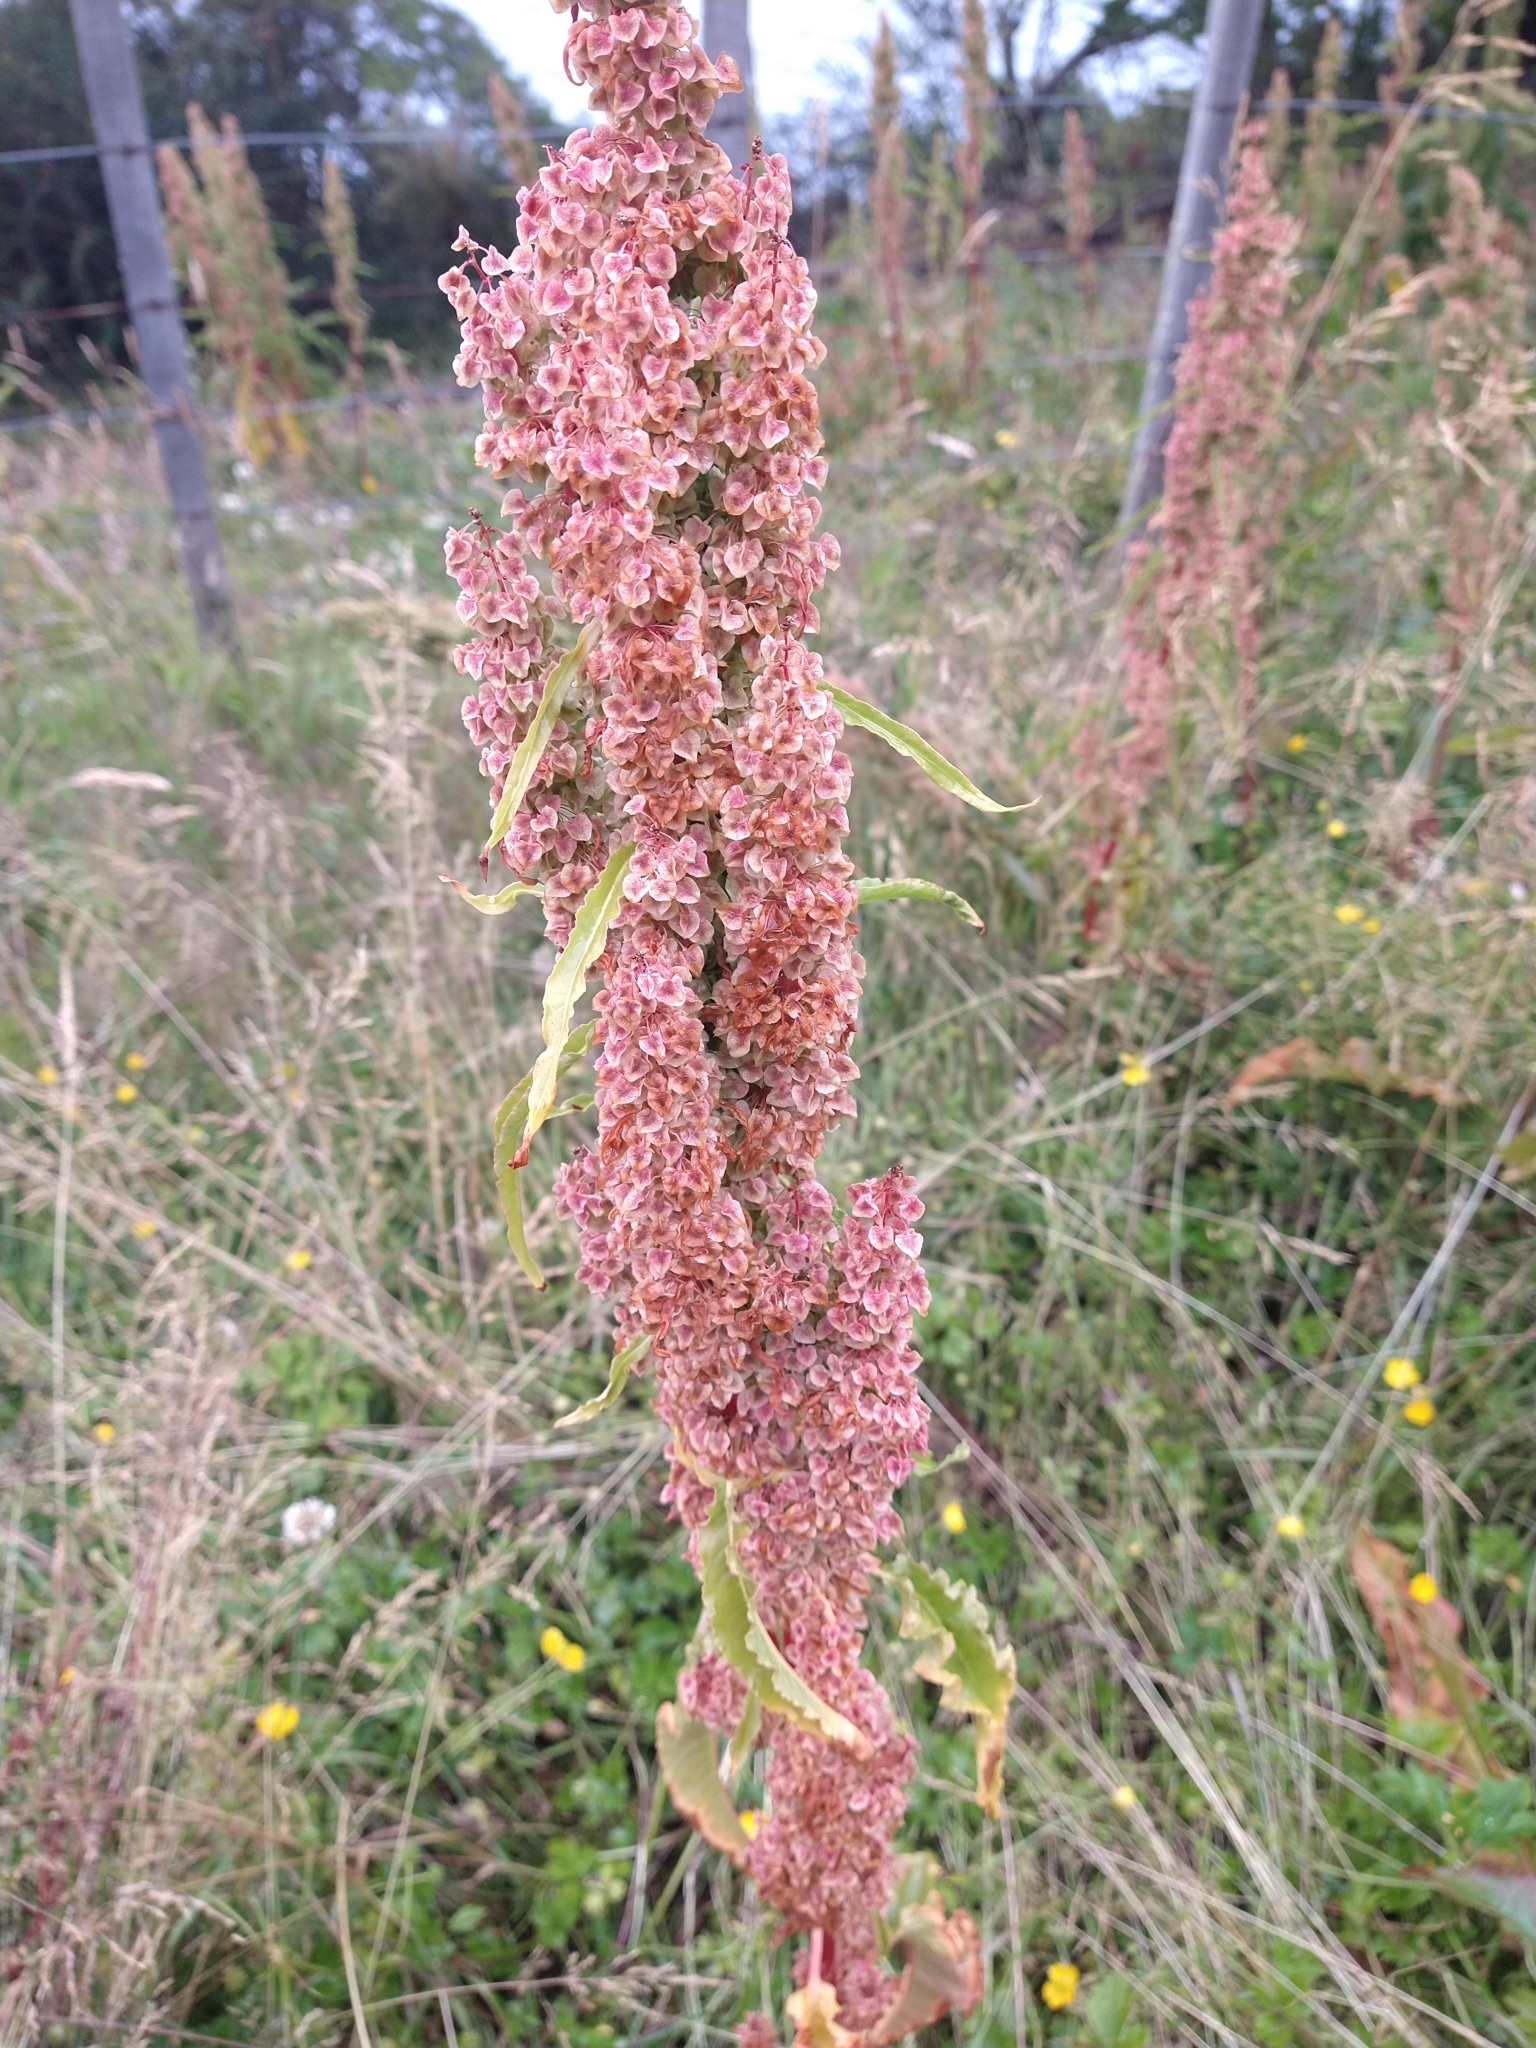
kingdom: Plantae
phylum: Tracheophyta
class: Magnoliopsida
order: Caryophyllales
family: Polygonaceae
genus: Rumex
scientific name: Rumex crispus
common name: Curled dock
